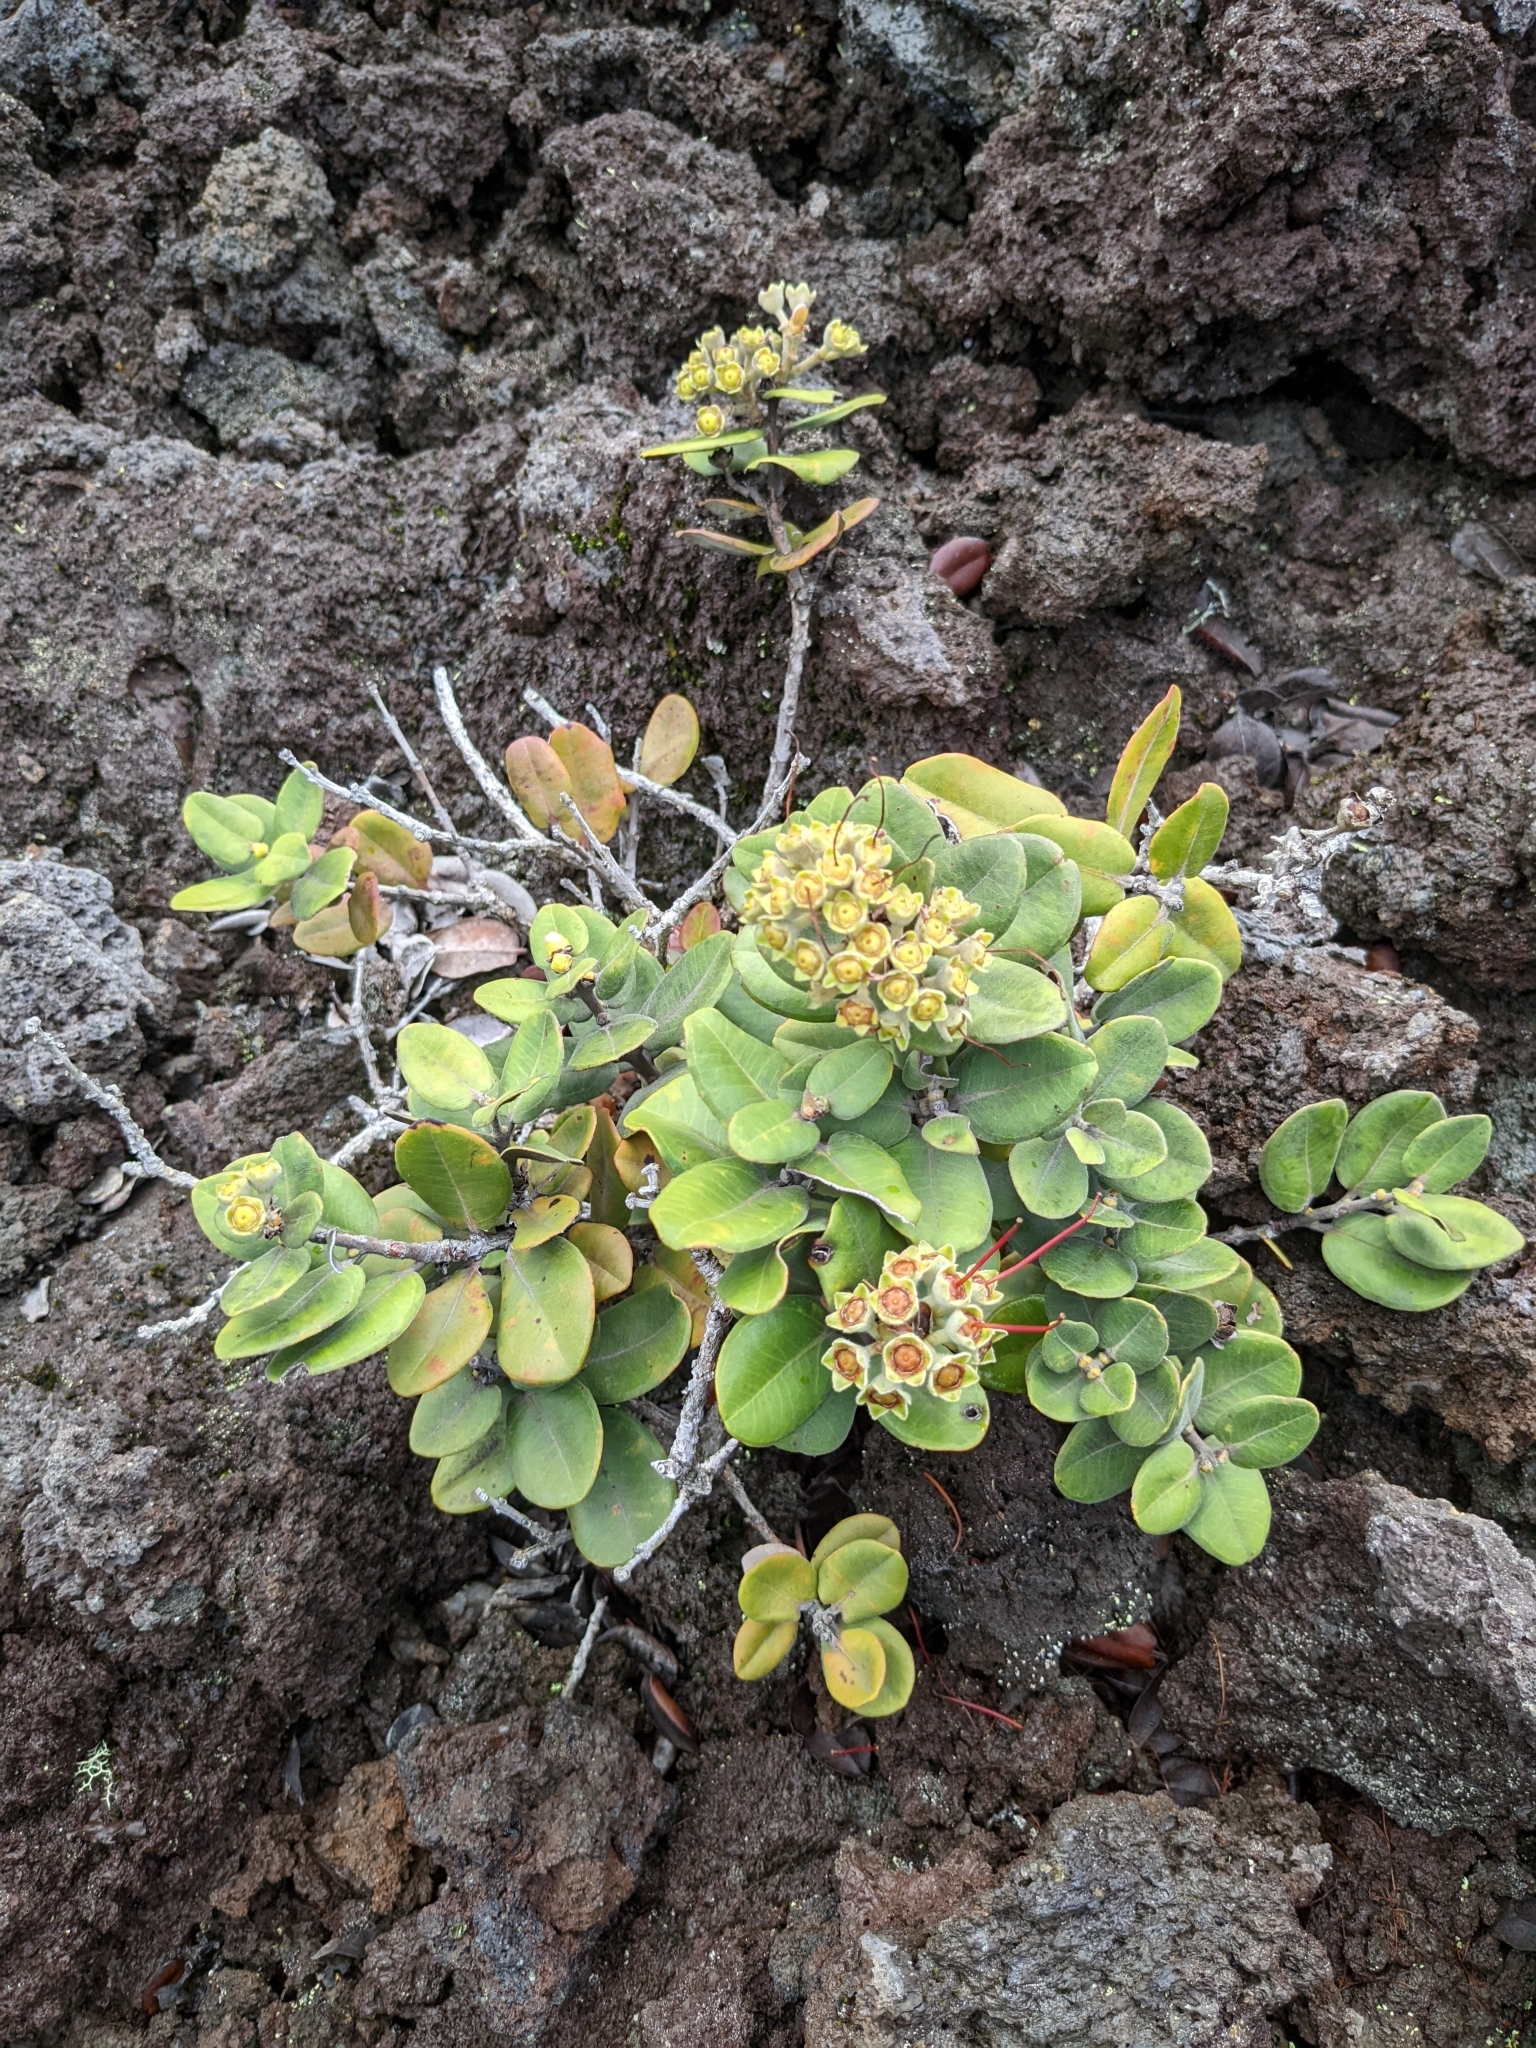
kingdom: Plantae
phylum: Tracheophyta
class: Magnoliopsida
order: Myrtales
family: Myrtaceae
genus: Metrosideros
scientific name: Metrosideros polymorpha
